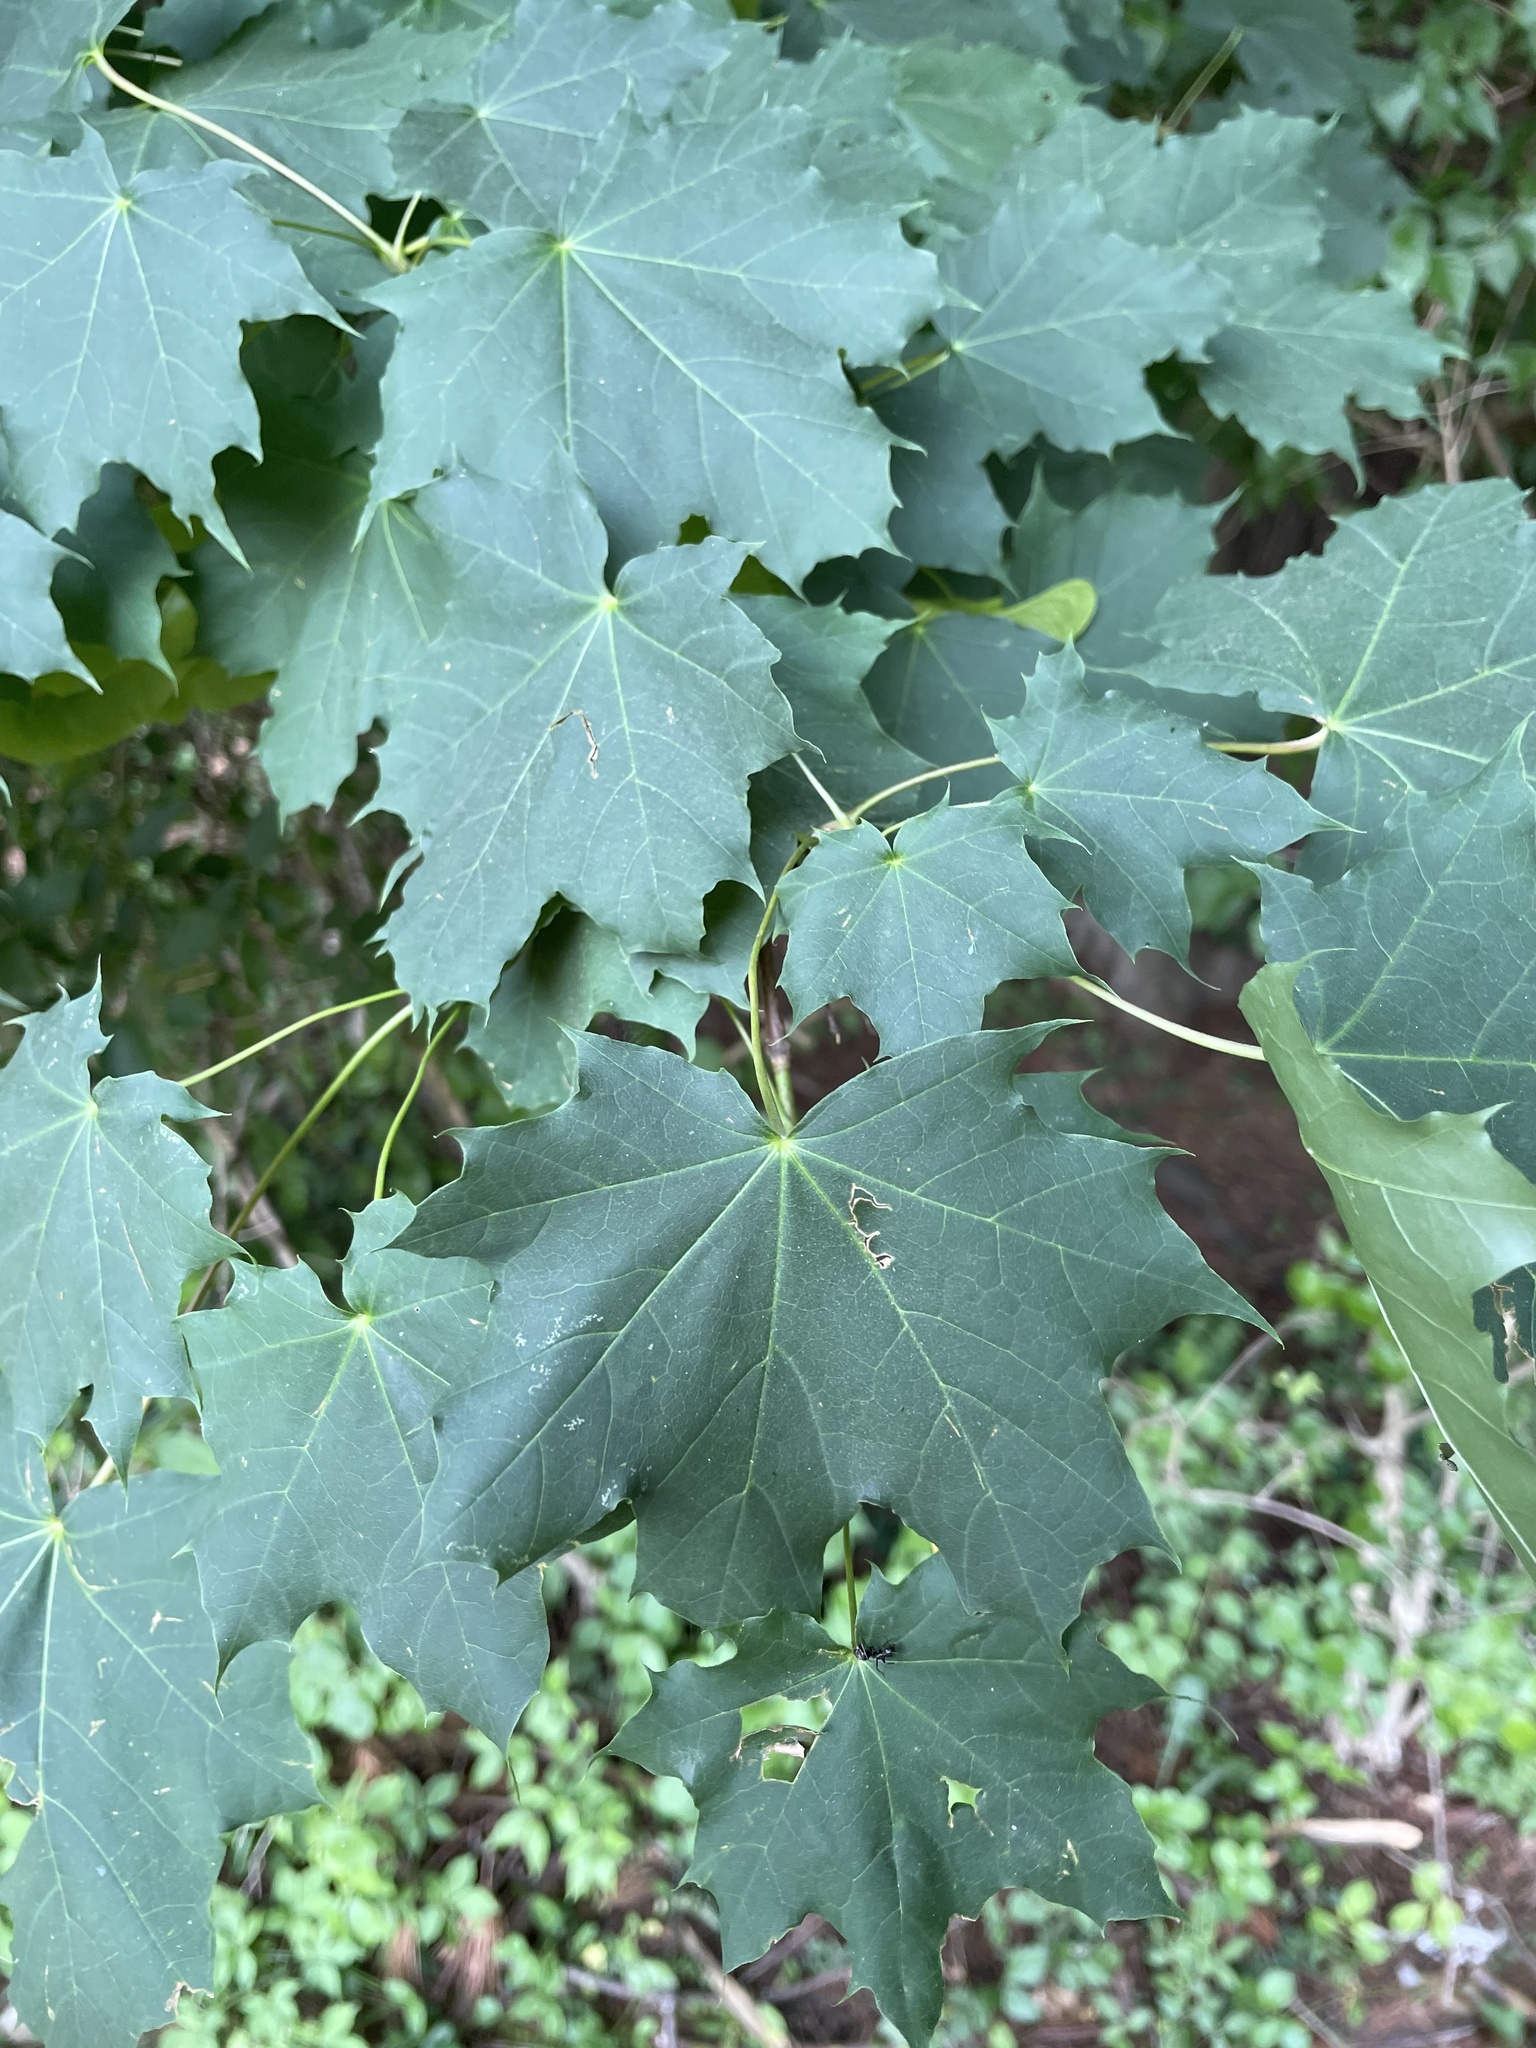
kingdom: Plantae
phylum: Tracheophyta
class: Magnoliopsida
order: Sapindales
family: Sapindaceae
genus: Acer
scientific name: Acer platanoides
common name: Norway maple
